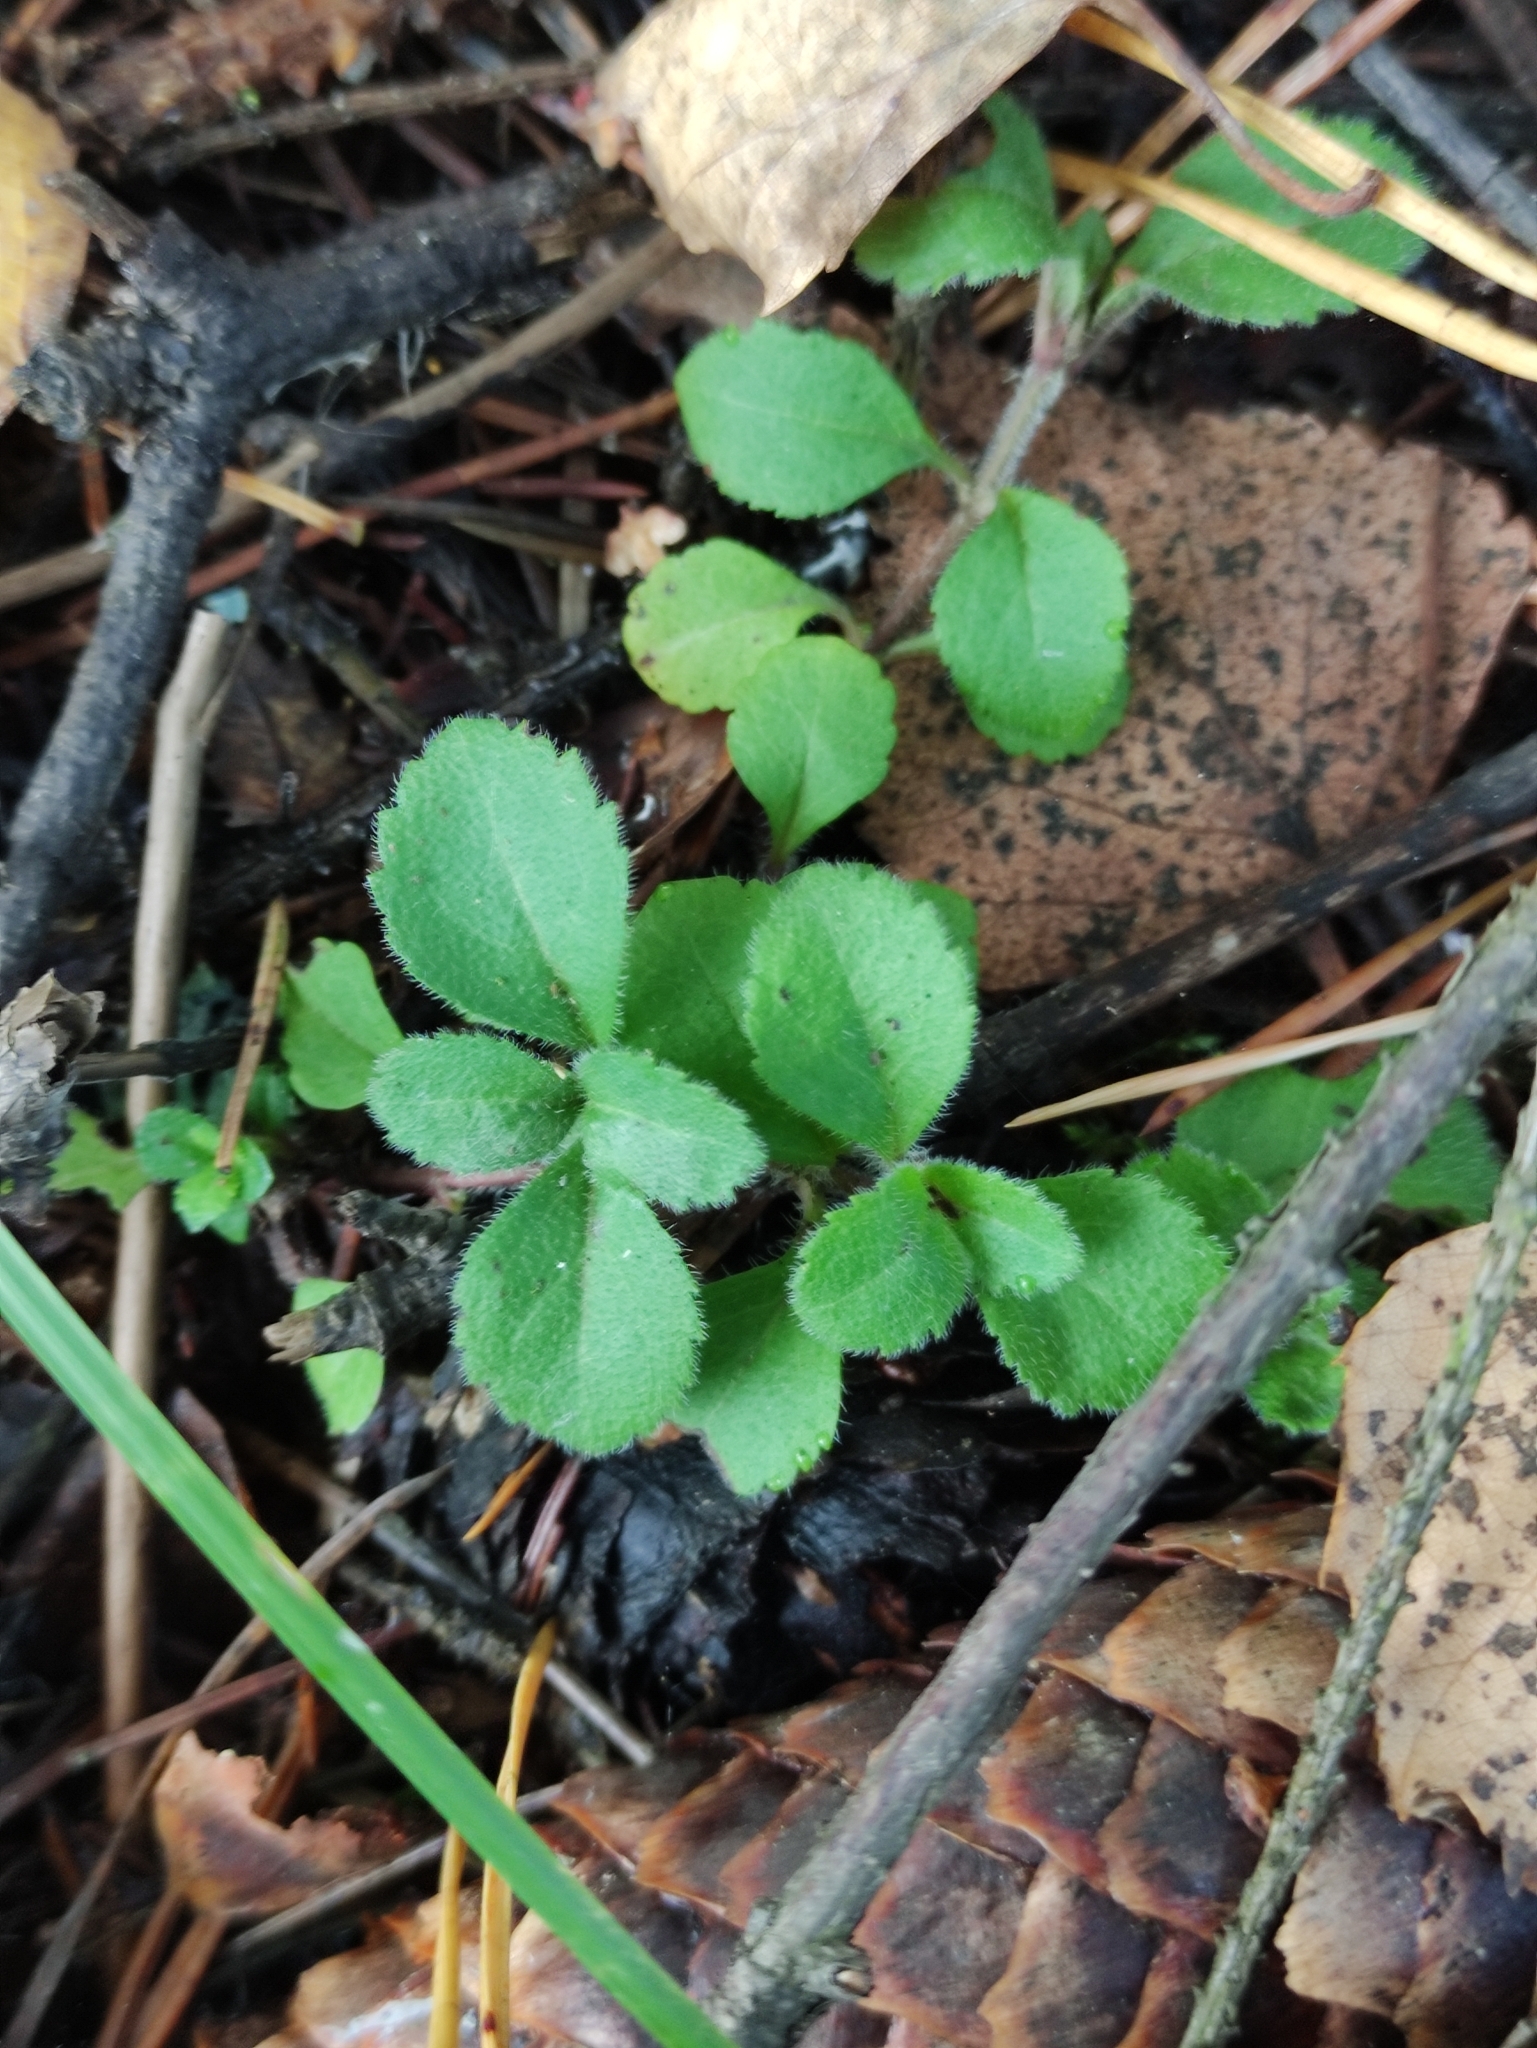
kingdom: Plantae
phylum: Tracheophyta
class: Magnoliopsida
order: Lamiales
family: Plantaginaceae
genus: Veronica
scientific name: Veronica officinalis
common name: Common speedwell
